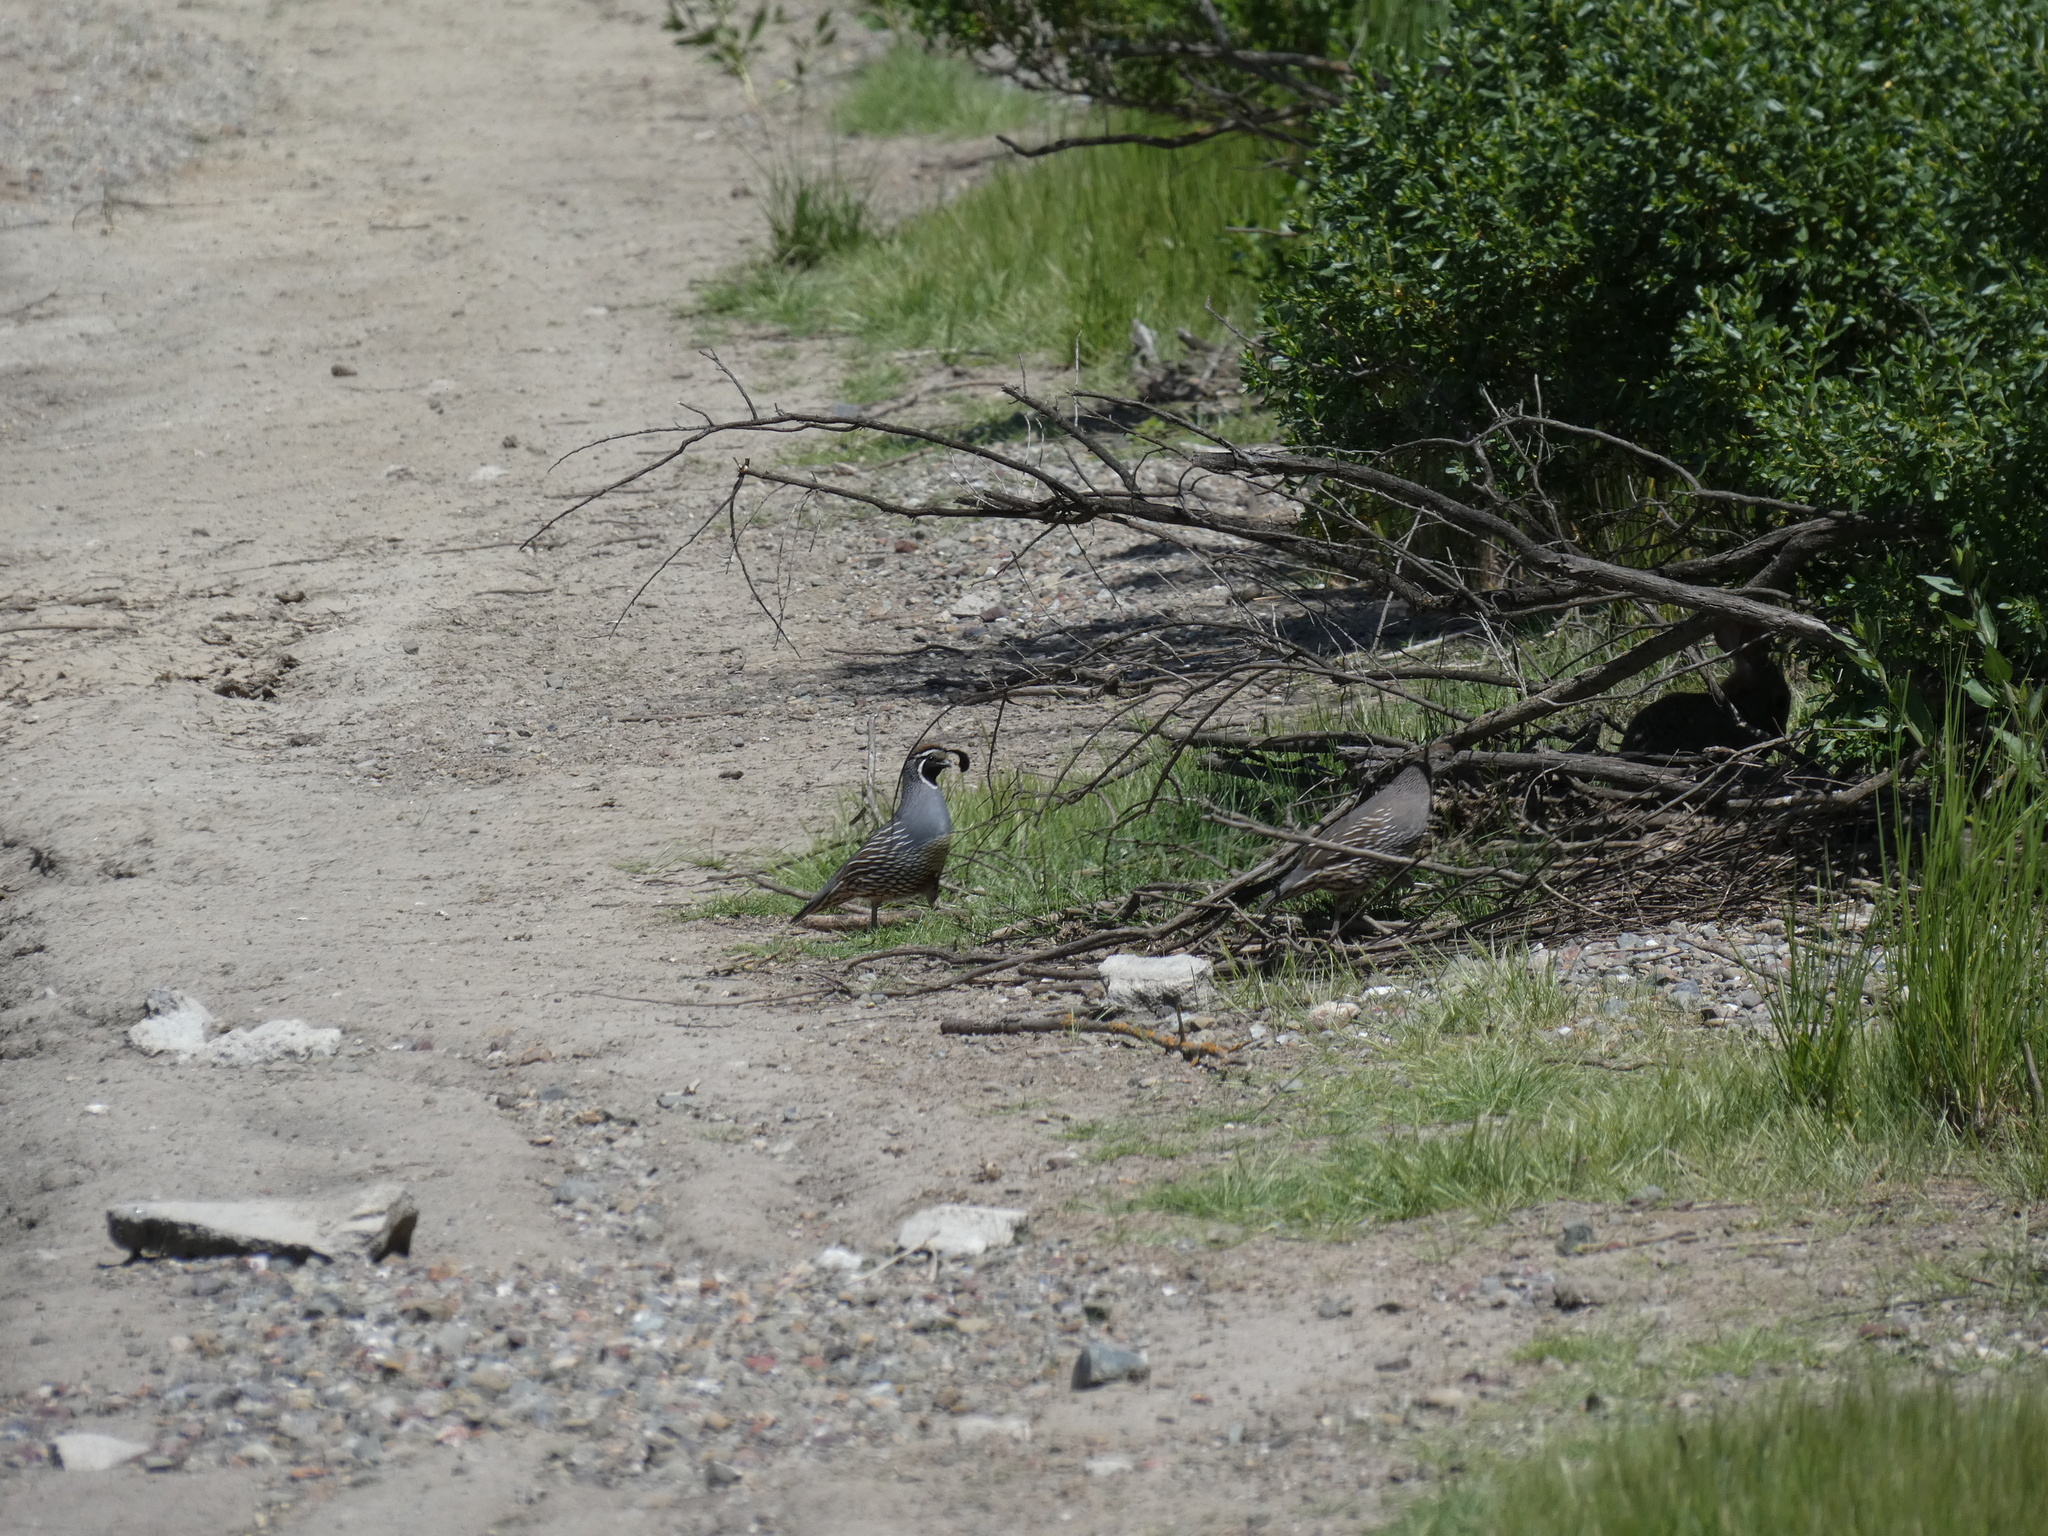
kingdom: Animalia
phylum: Chordata
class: Aves
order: Galliformes
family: Odontophoridae
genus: Callipepla
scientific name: Callipepla californica
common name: California quail
